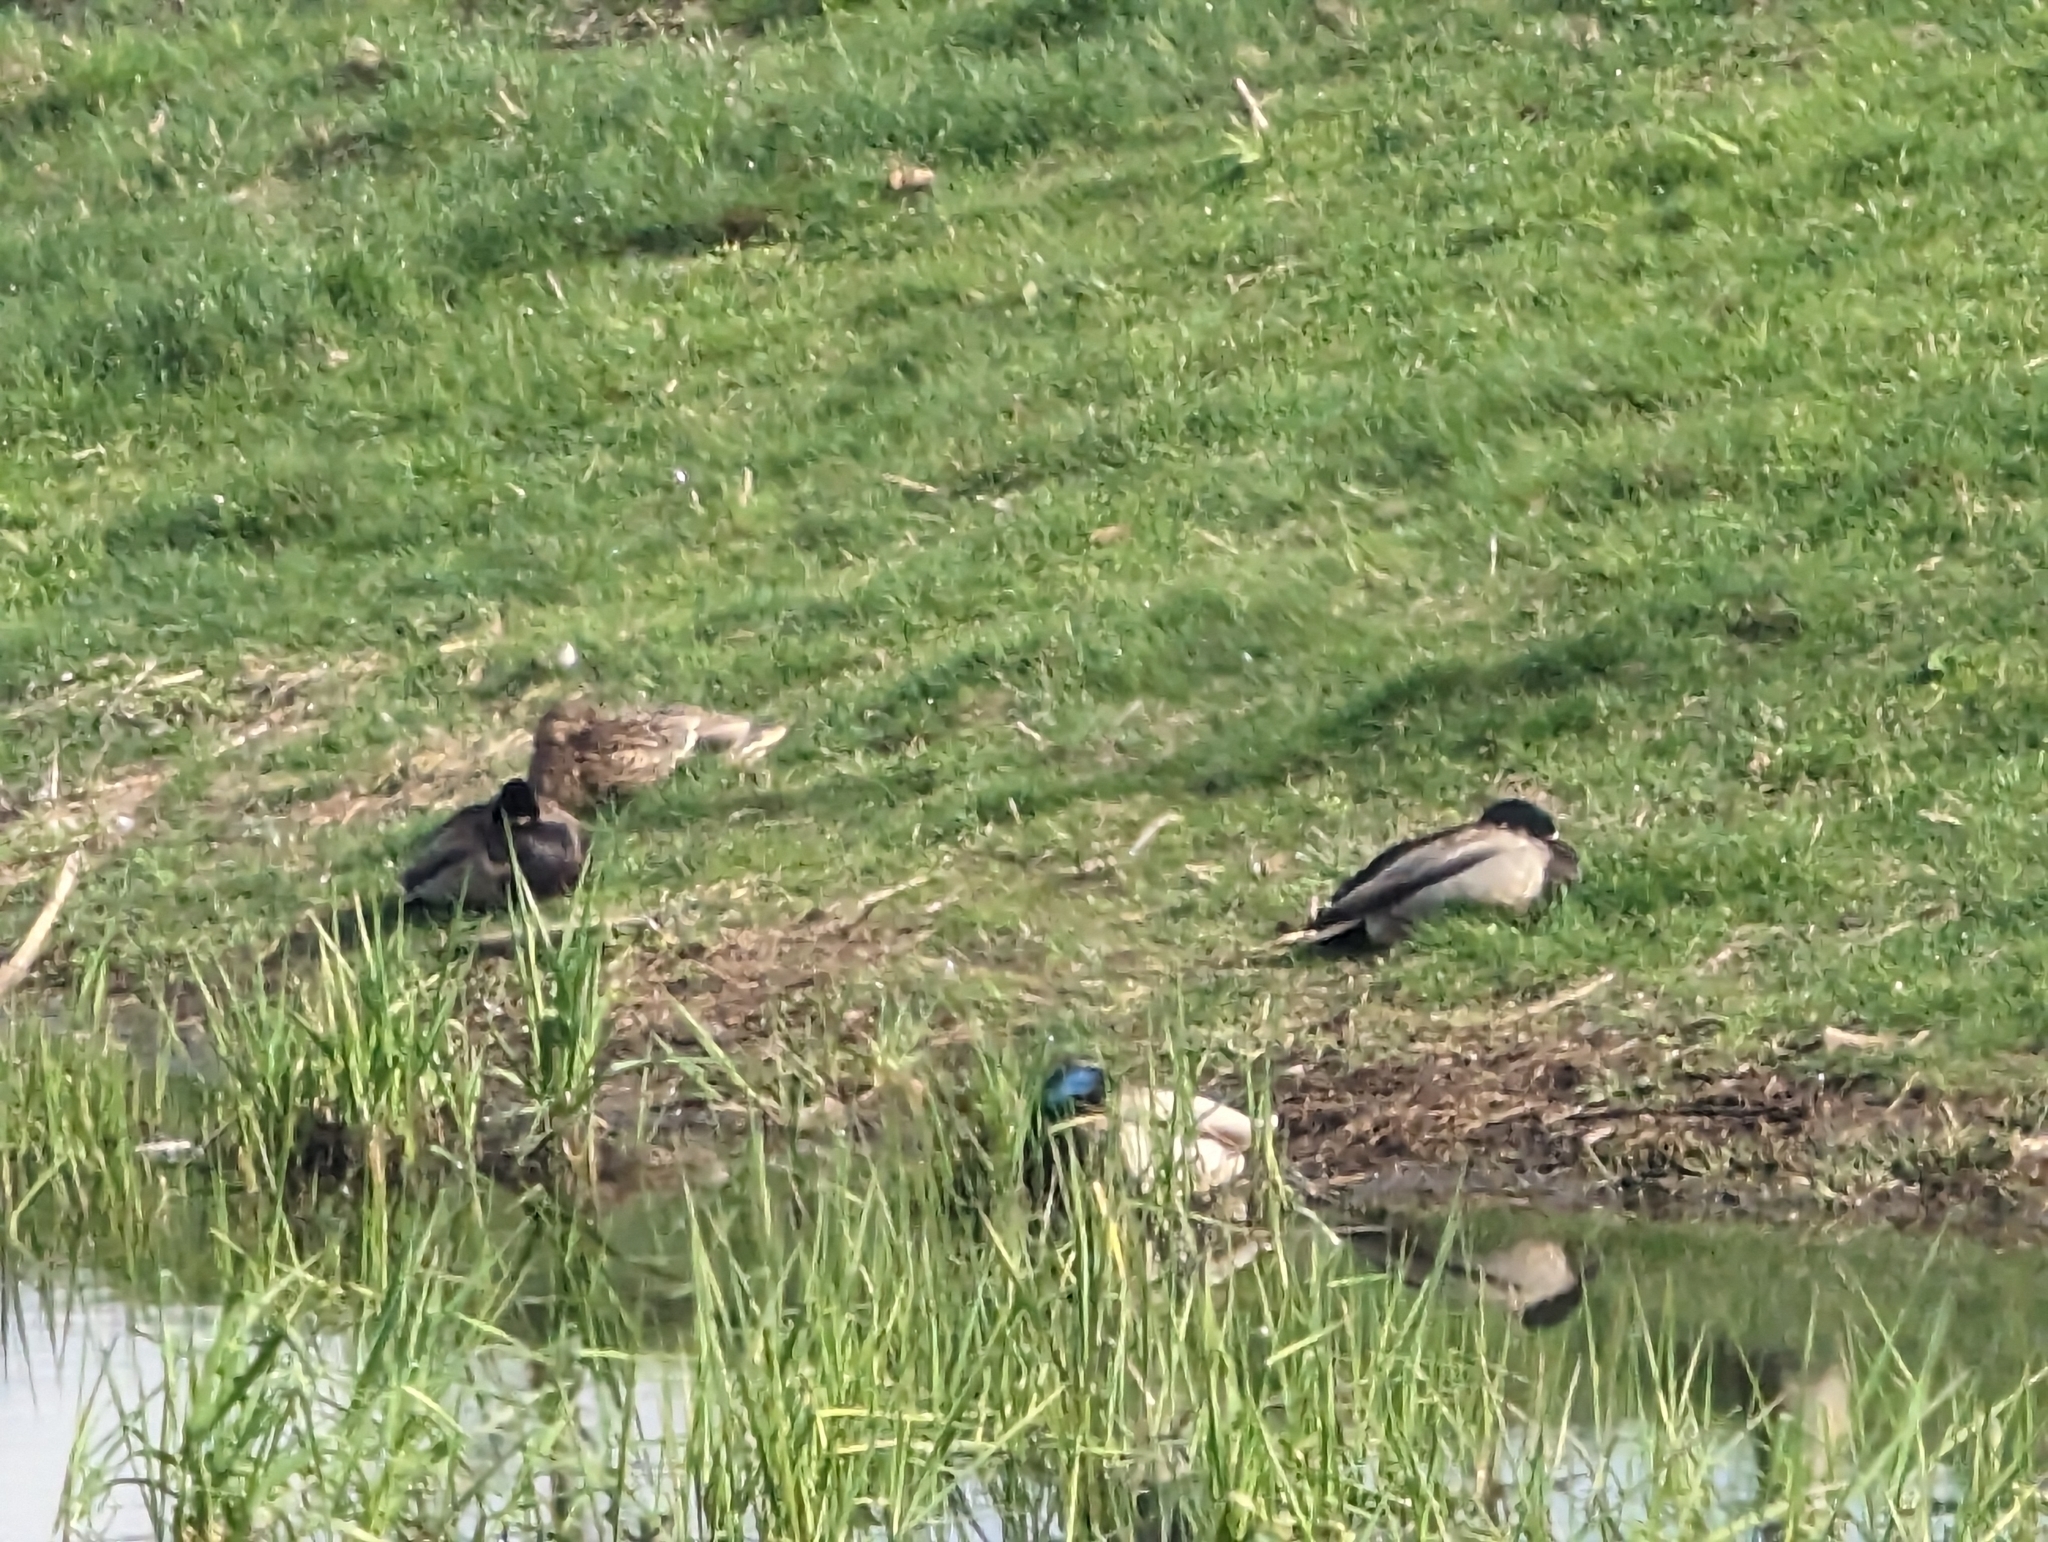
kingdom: Animalia
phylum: Chordata
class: Aves
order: Anseriformes
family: Anatidae
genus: Anas
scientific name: Anas platyrhynchos
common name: Mallard
